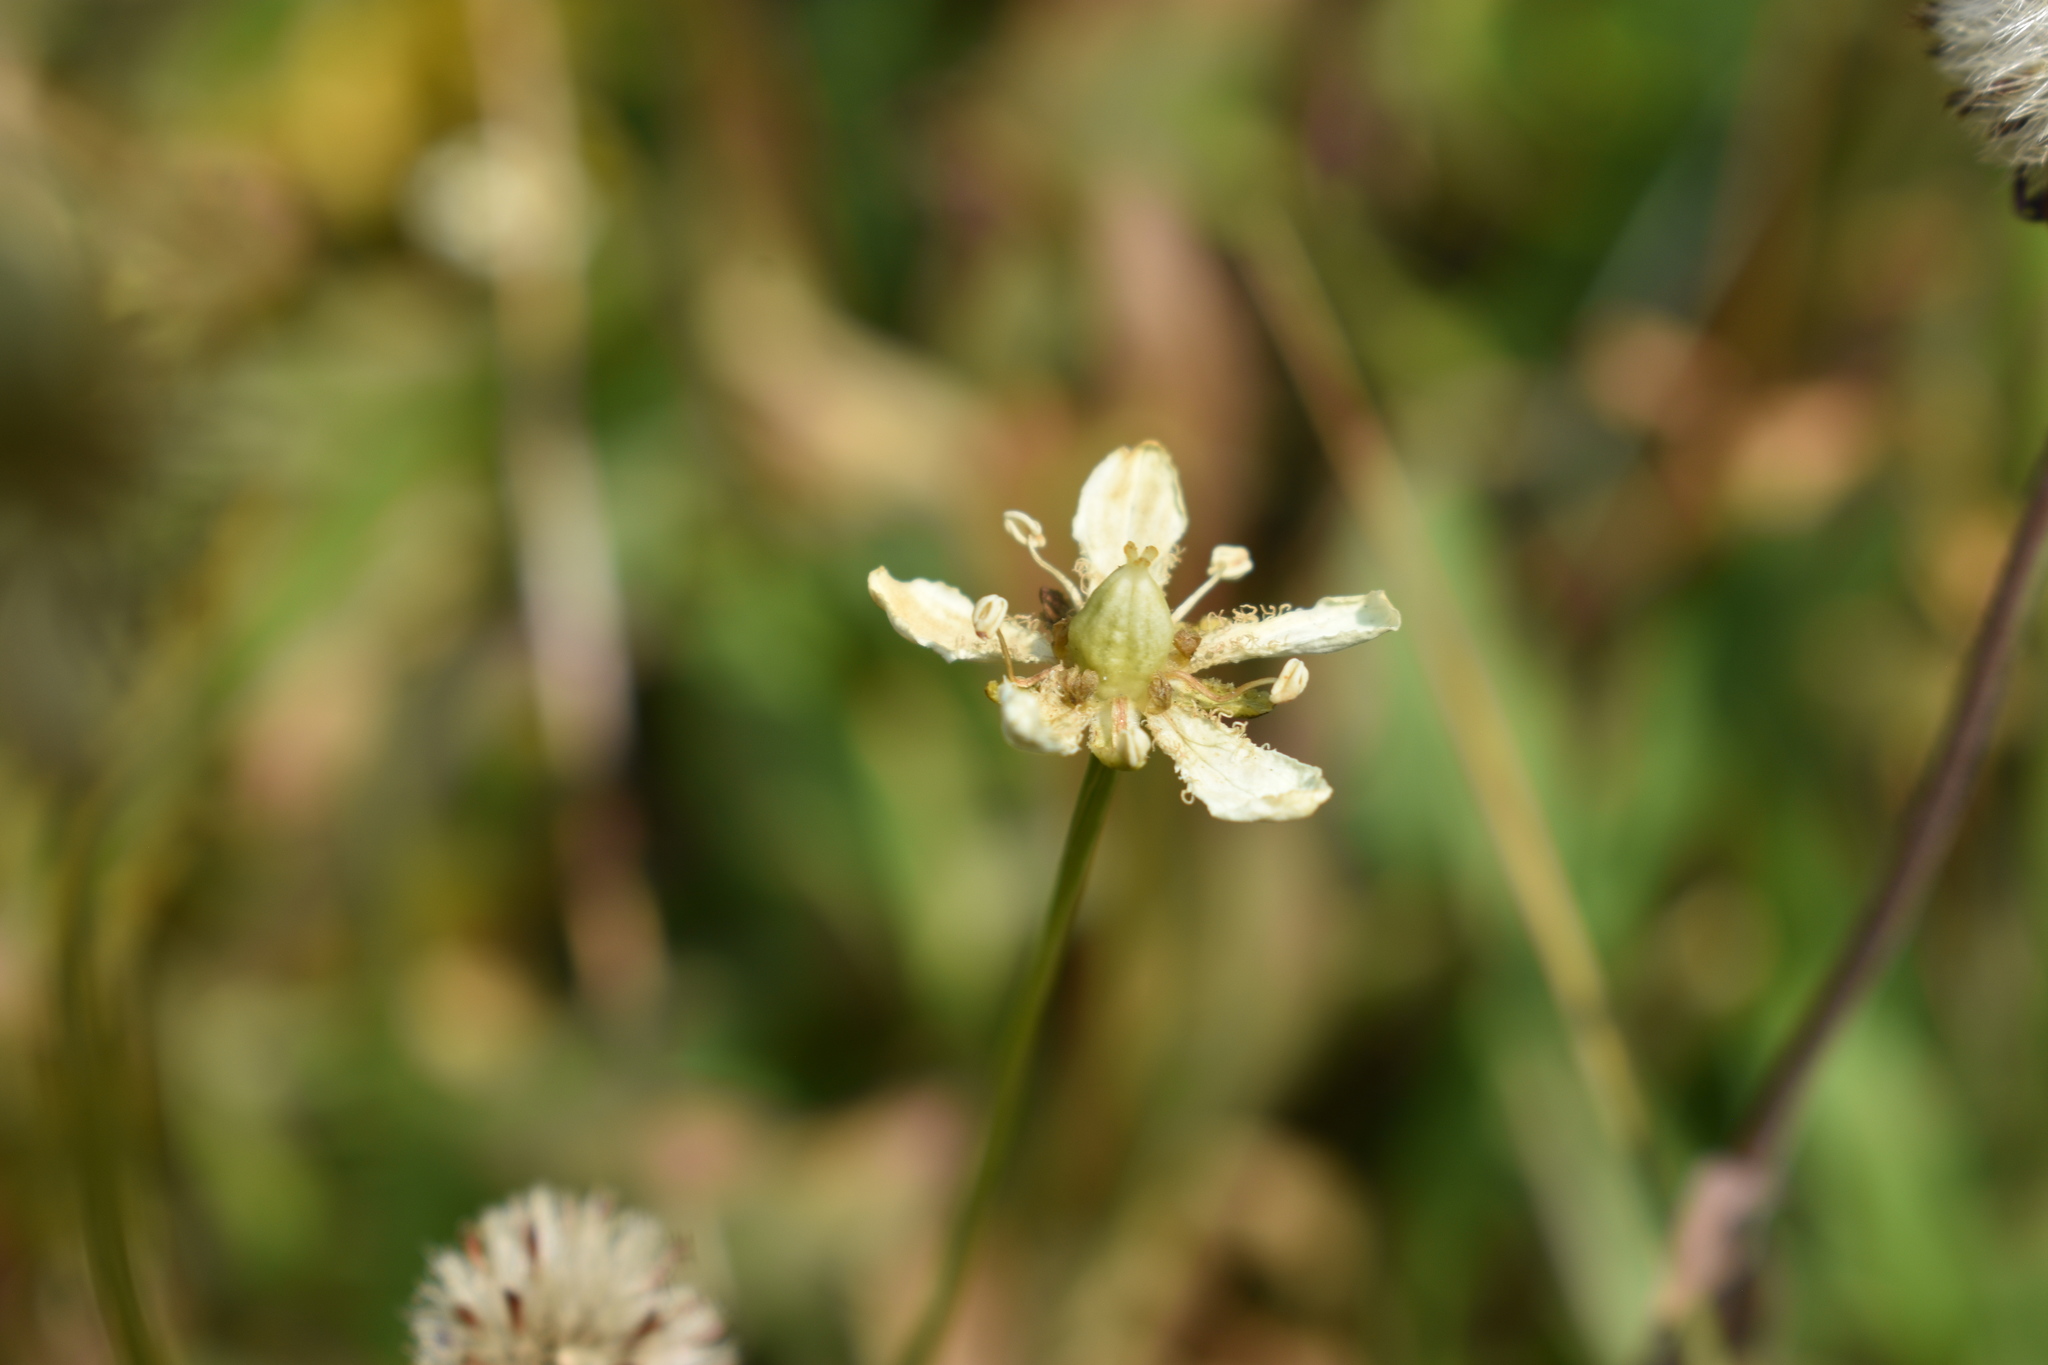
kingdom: Plantae
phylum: Tracheophyta
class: Magnoliopsida
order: Celastrales
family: Parnassiaceae
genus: Parnassia
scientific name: Parnassia fimbriata
